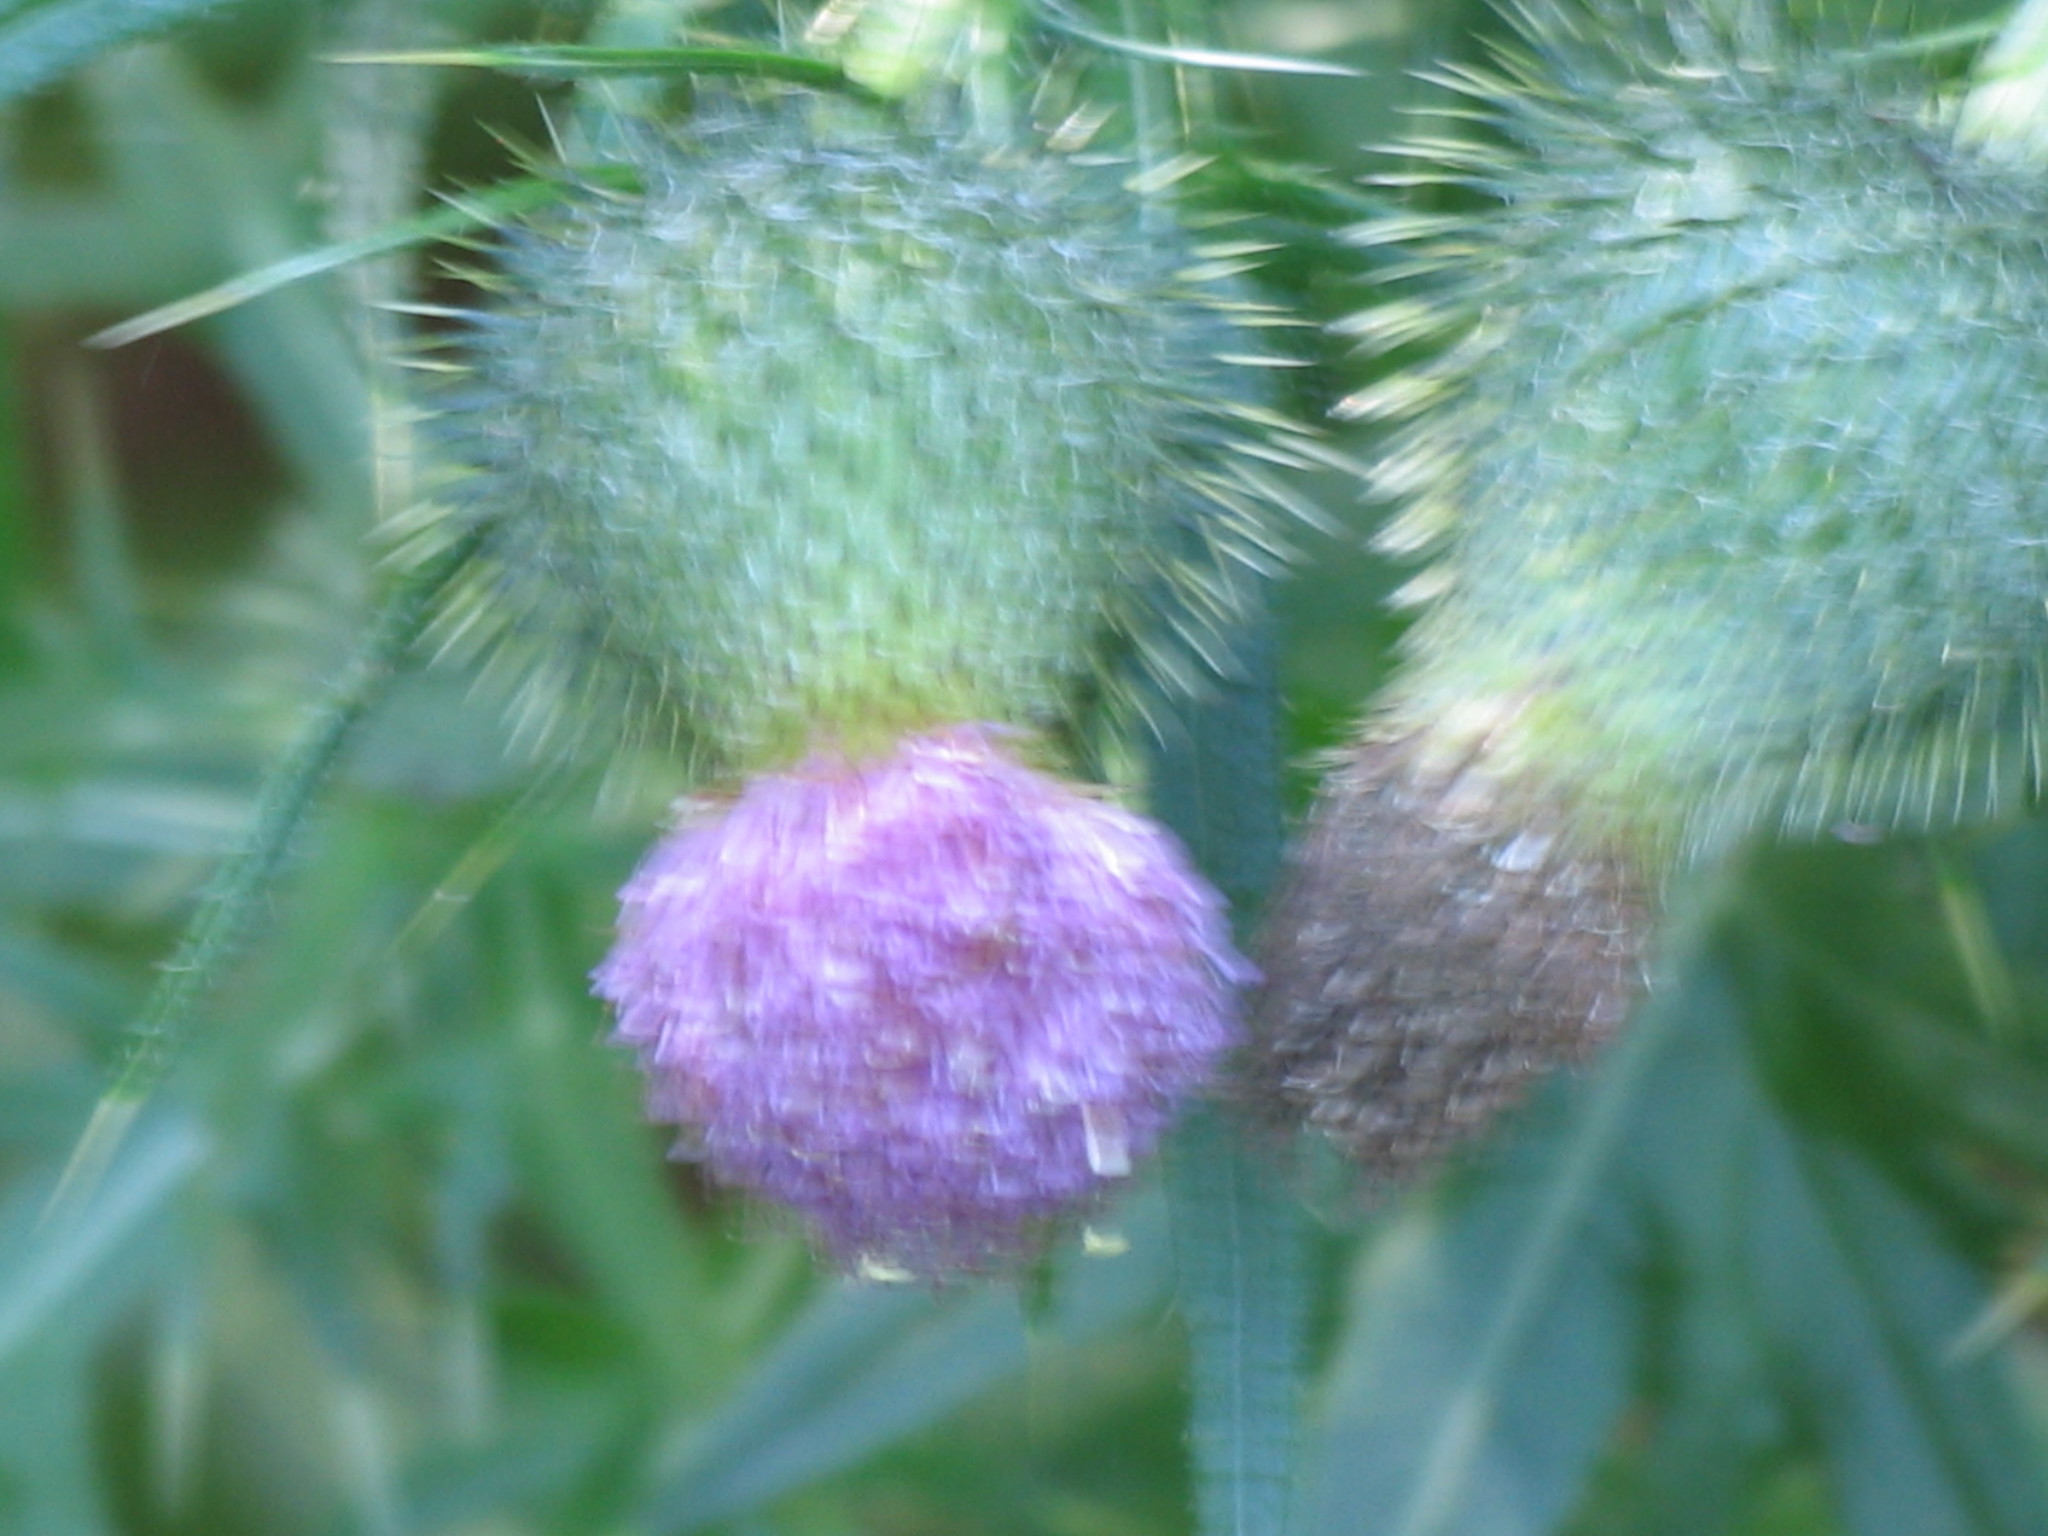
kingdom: Plantae
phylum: Tracheophyta
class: Magnoliopsida
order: Asterales
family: Asteraceae
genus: Cirsium
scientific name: Cirsium vulgare
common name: Bull thistle
